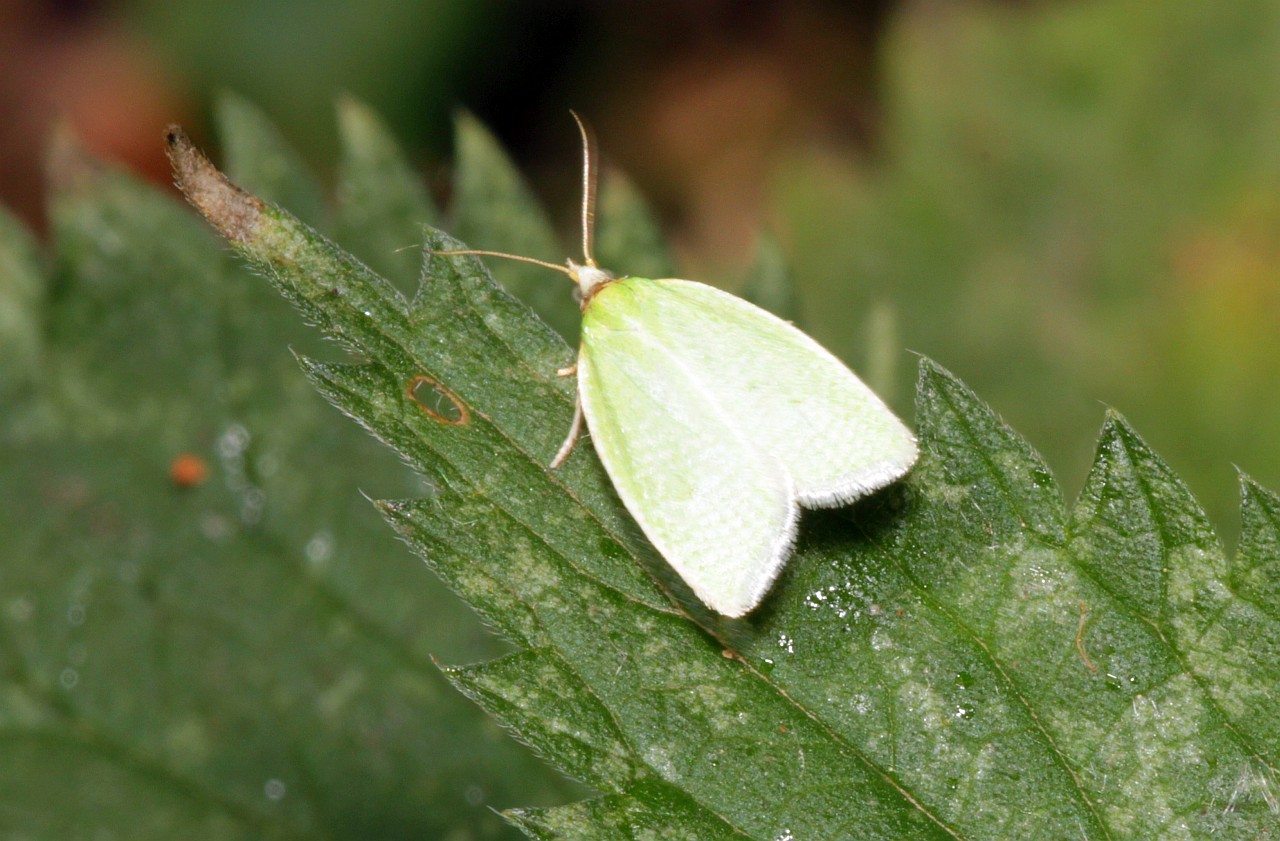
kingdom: Animalia
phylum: Arthropoda
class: Insecta
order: Lepidoptera
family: Tortricidae
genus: Tortrix
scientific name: Tortrix viridana
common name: Green oak tortrix
